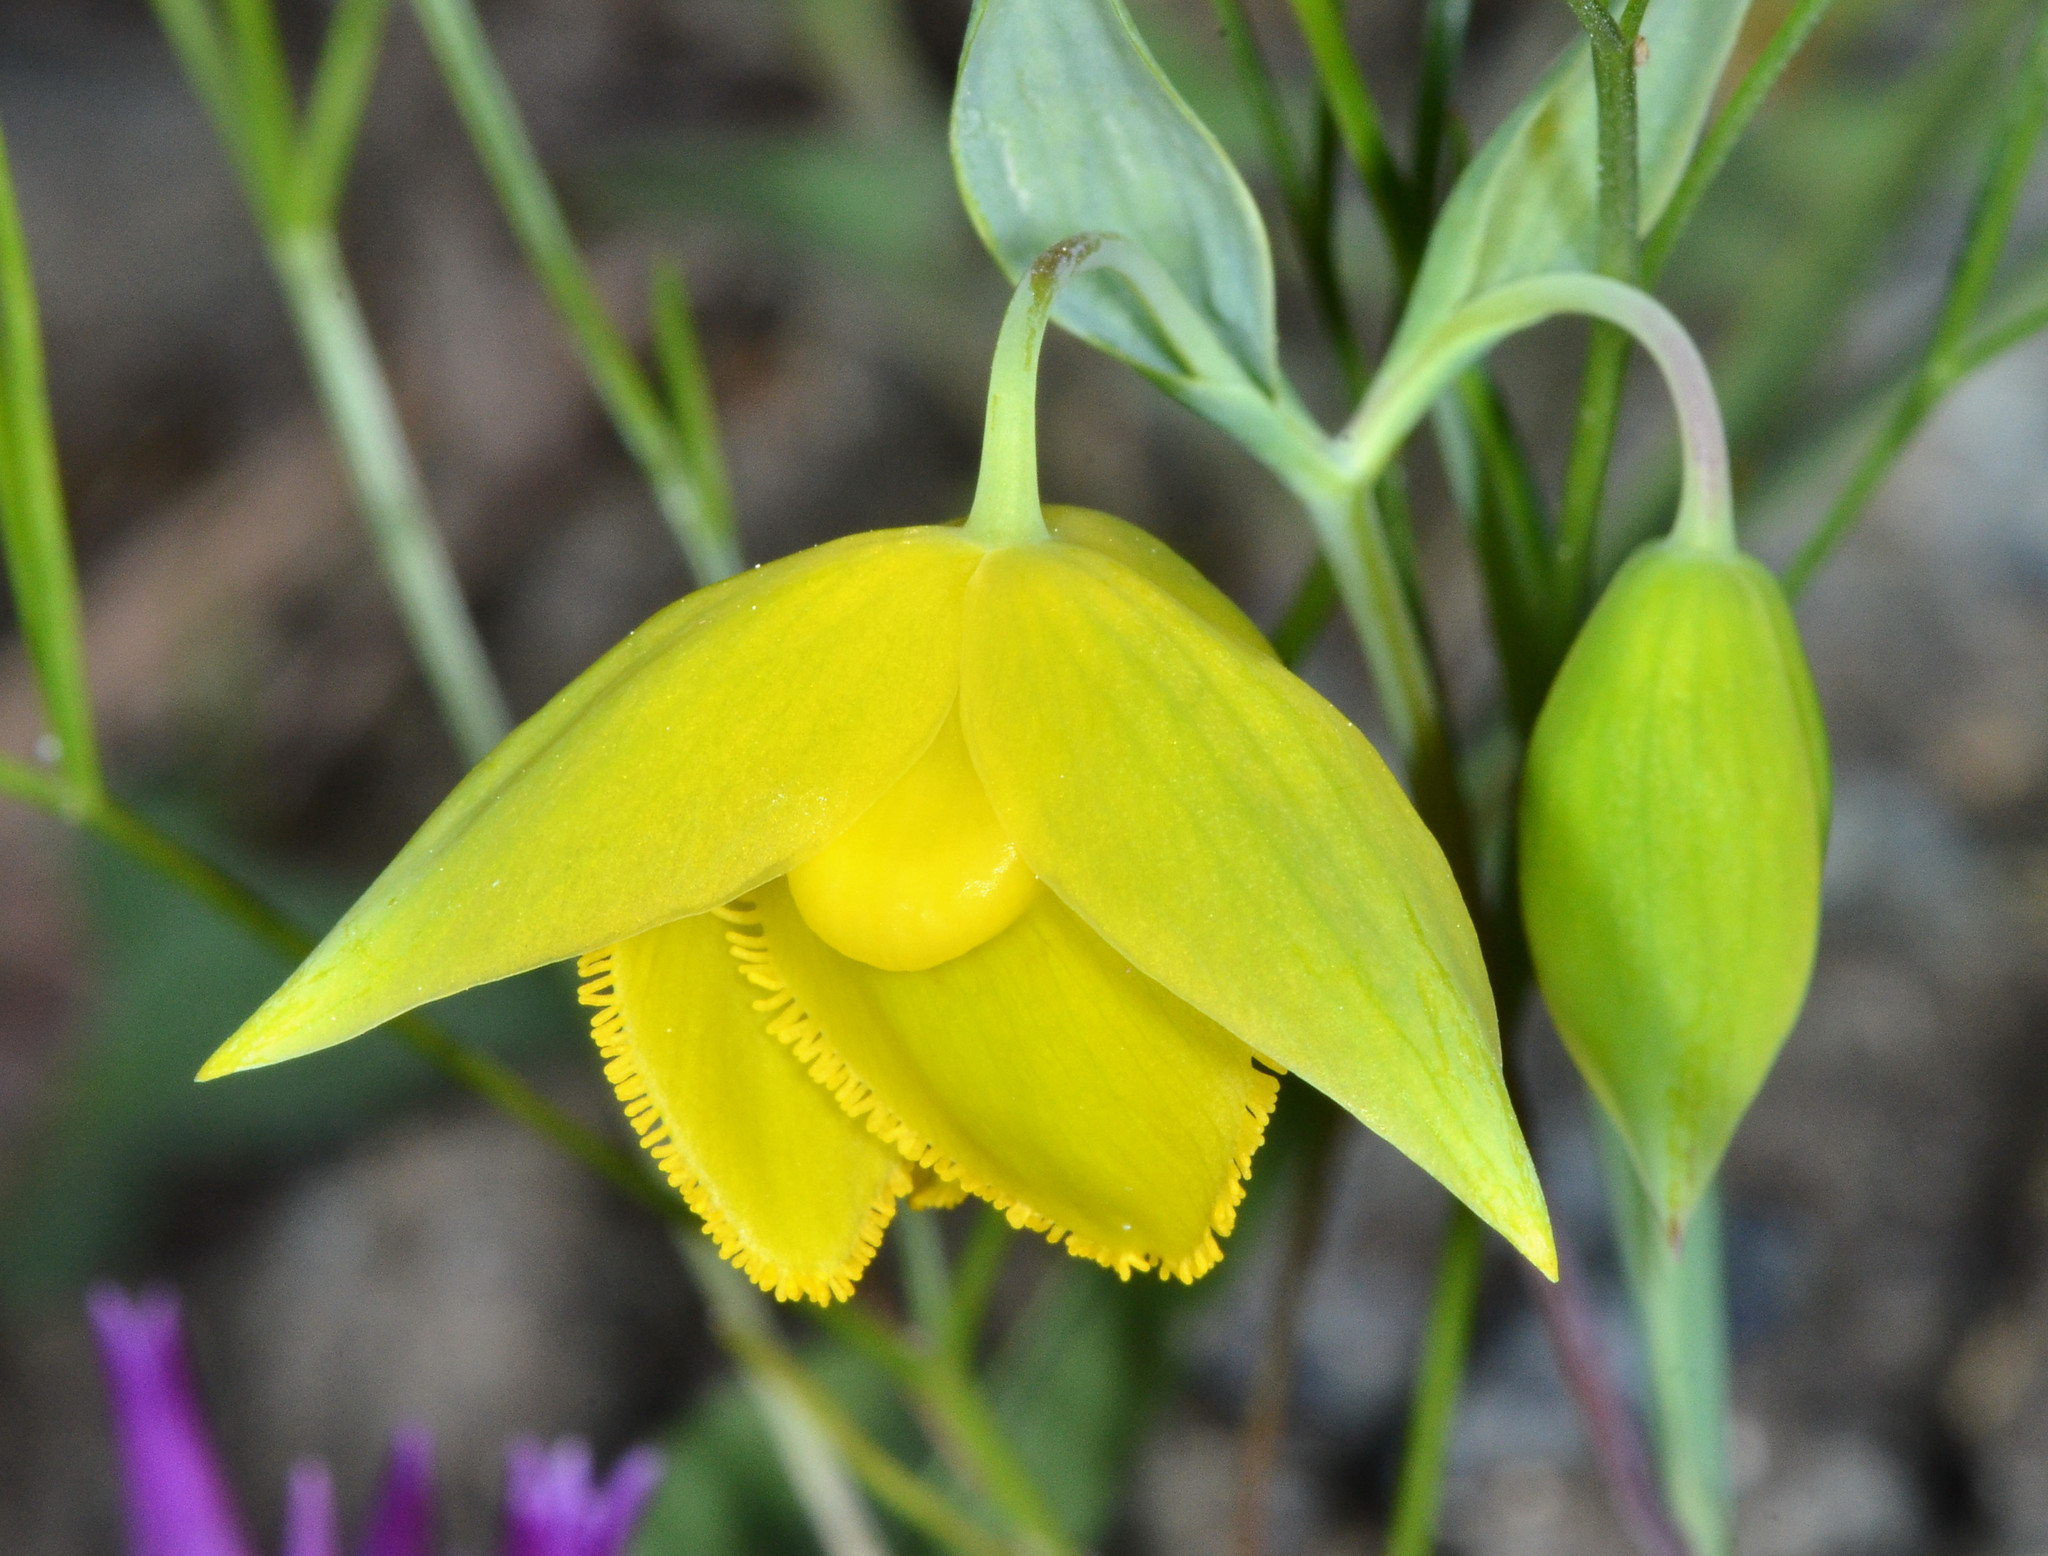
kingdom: Plantae
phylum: Tracheophyta
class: Liliopsida
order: Liliales
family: Liliaceae
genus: Calochortus
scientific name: Calochortus amabilis
